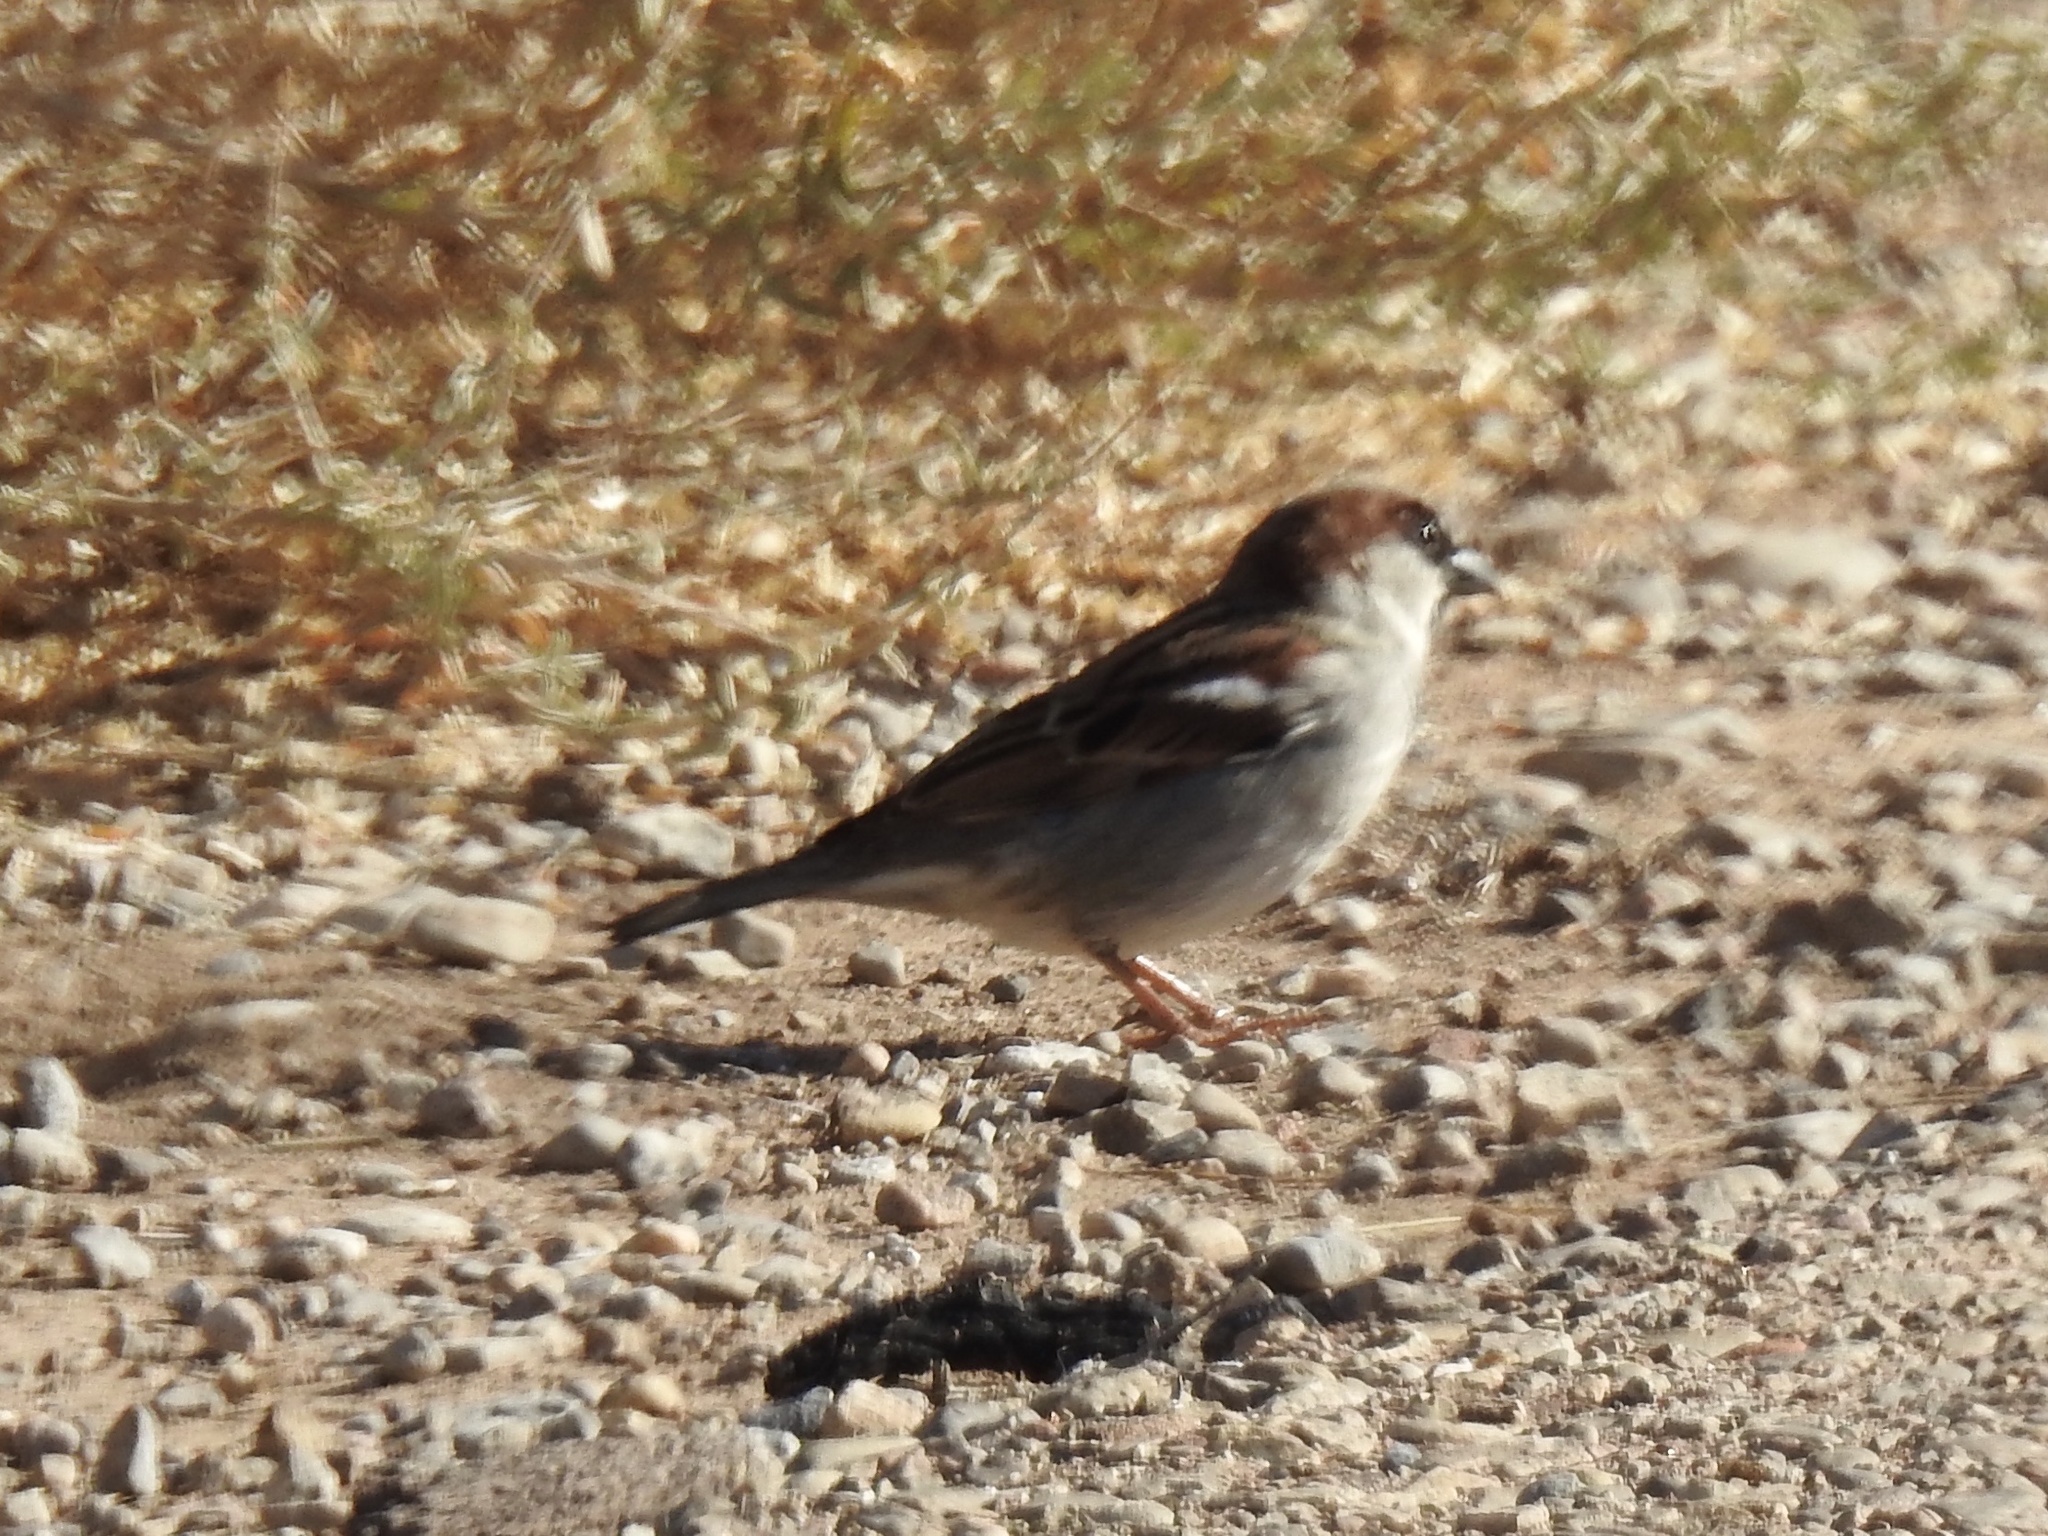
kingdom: Animalia
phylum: Chordata
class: Aves
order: Passeriformes
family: Passeridae
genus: Passer
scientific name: Passer domesticus
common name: House sparrow
